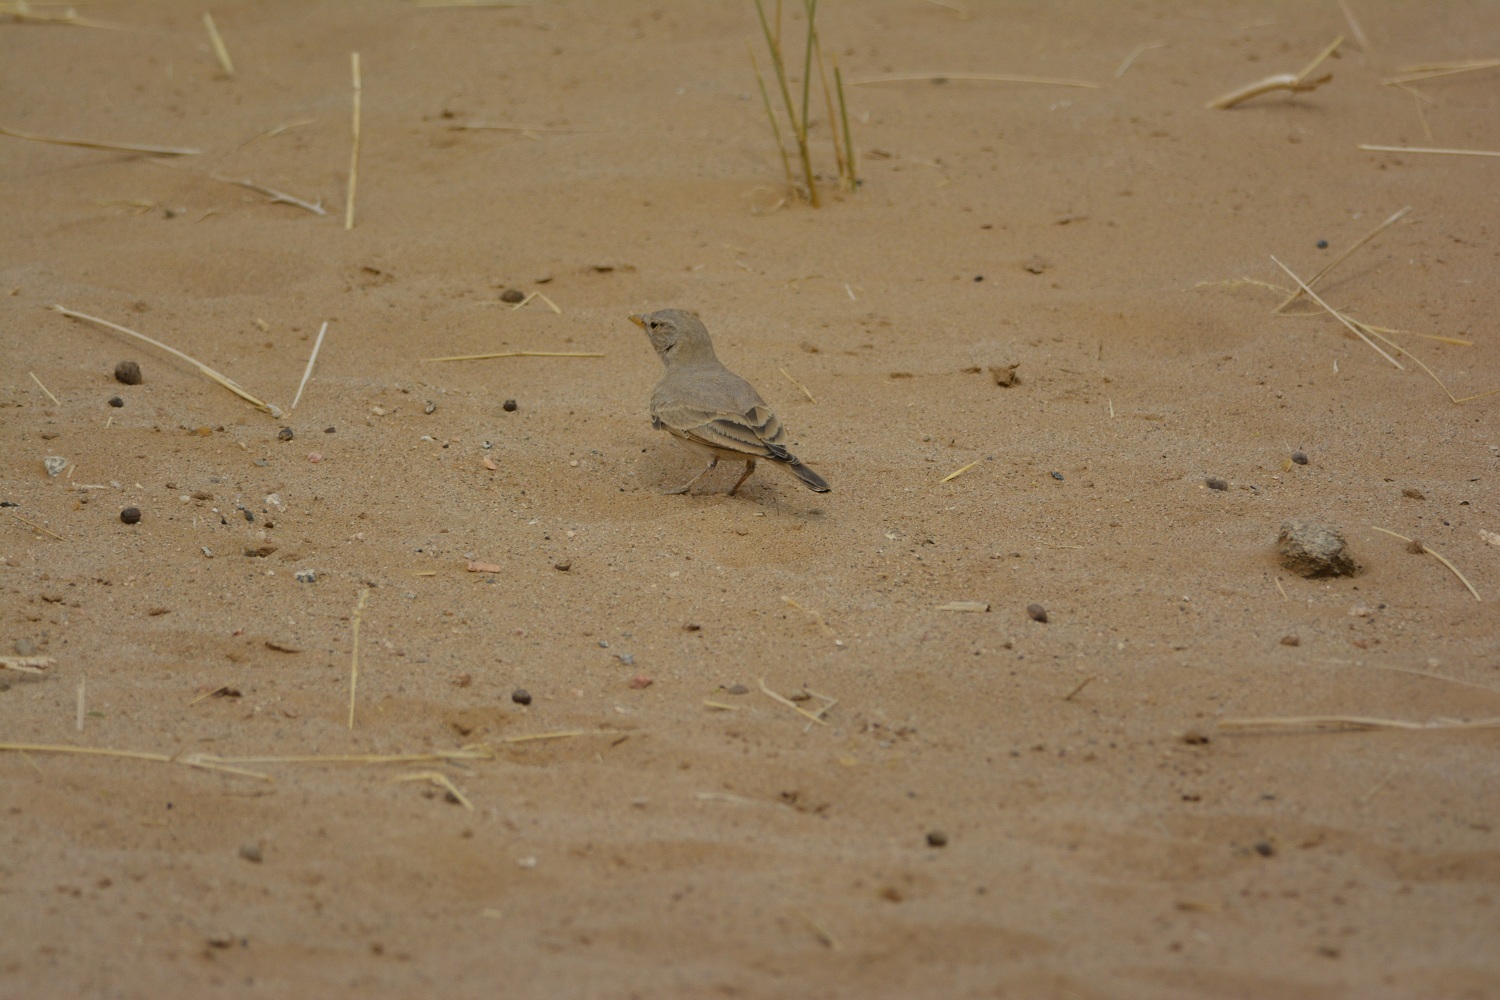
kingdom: Animalia
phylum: Chordata
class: Aves
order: Passeriformes
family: Alaudidae
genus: Ammomanes
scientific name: Ammomanes deserti
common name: Desert lark
